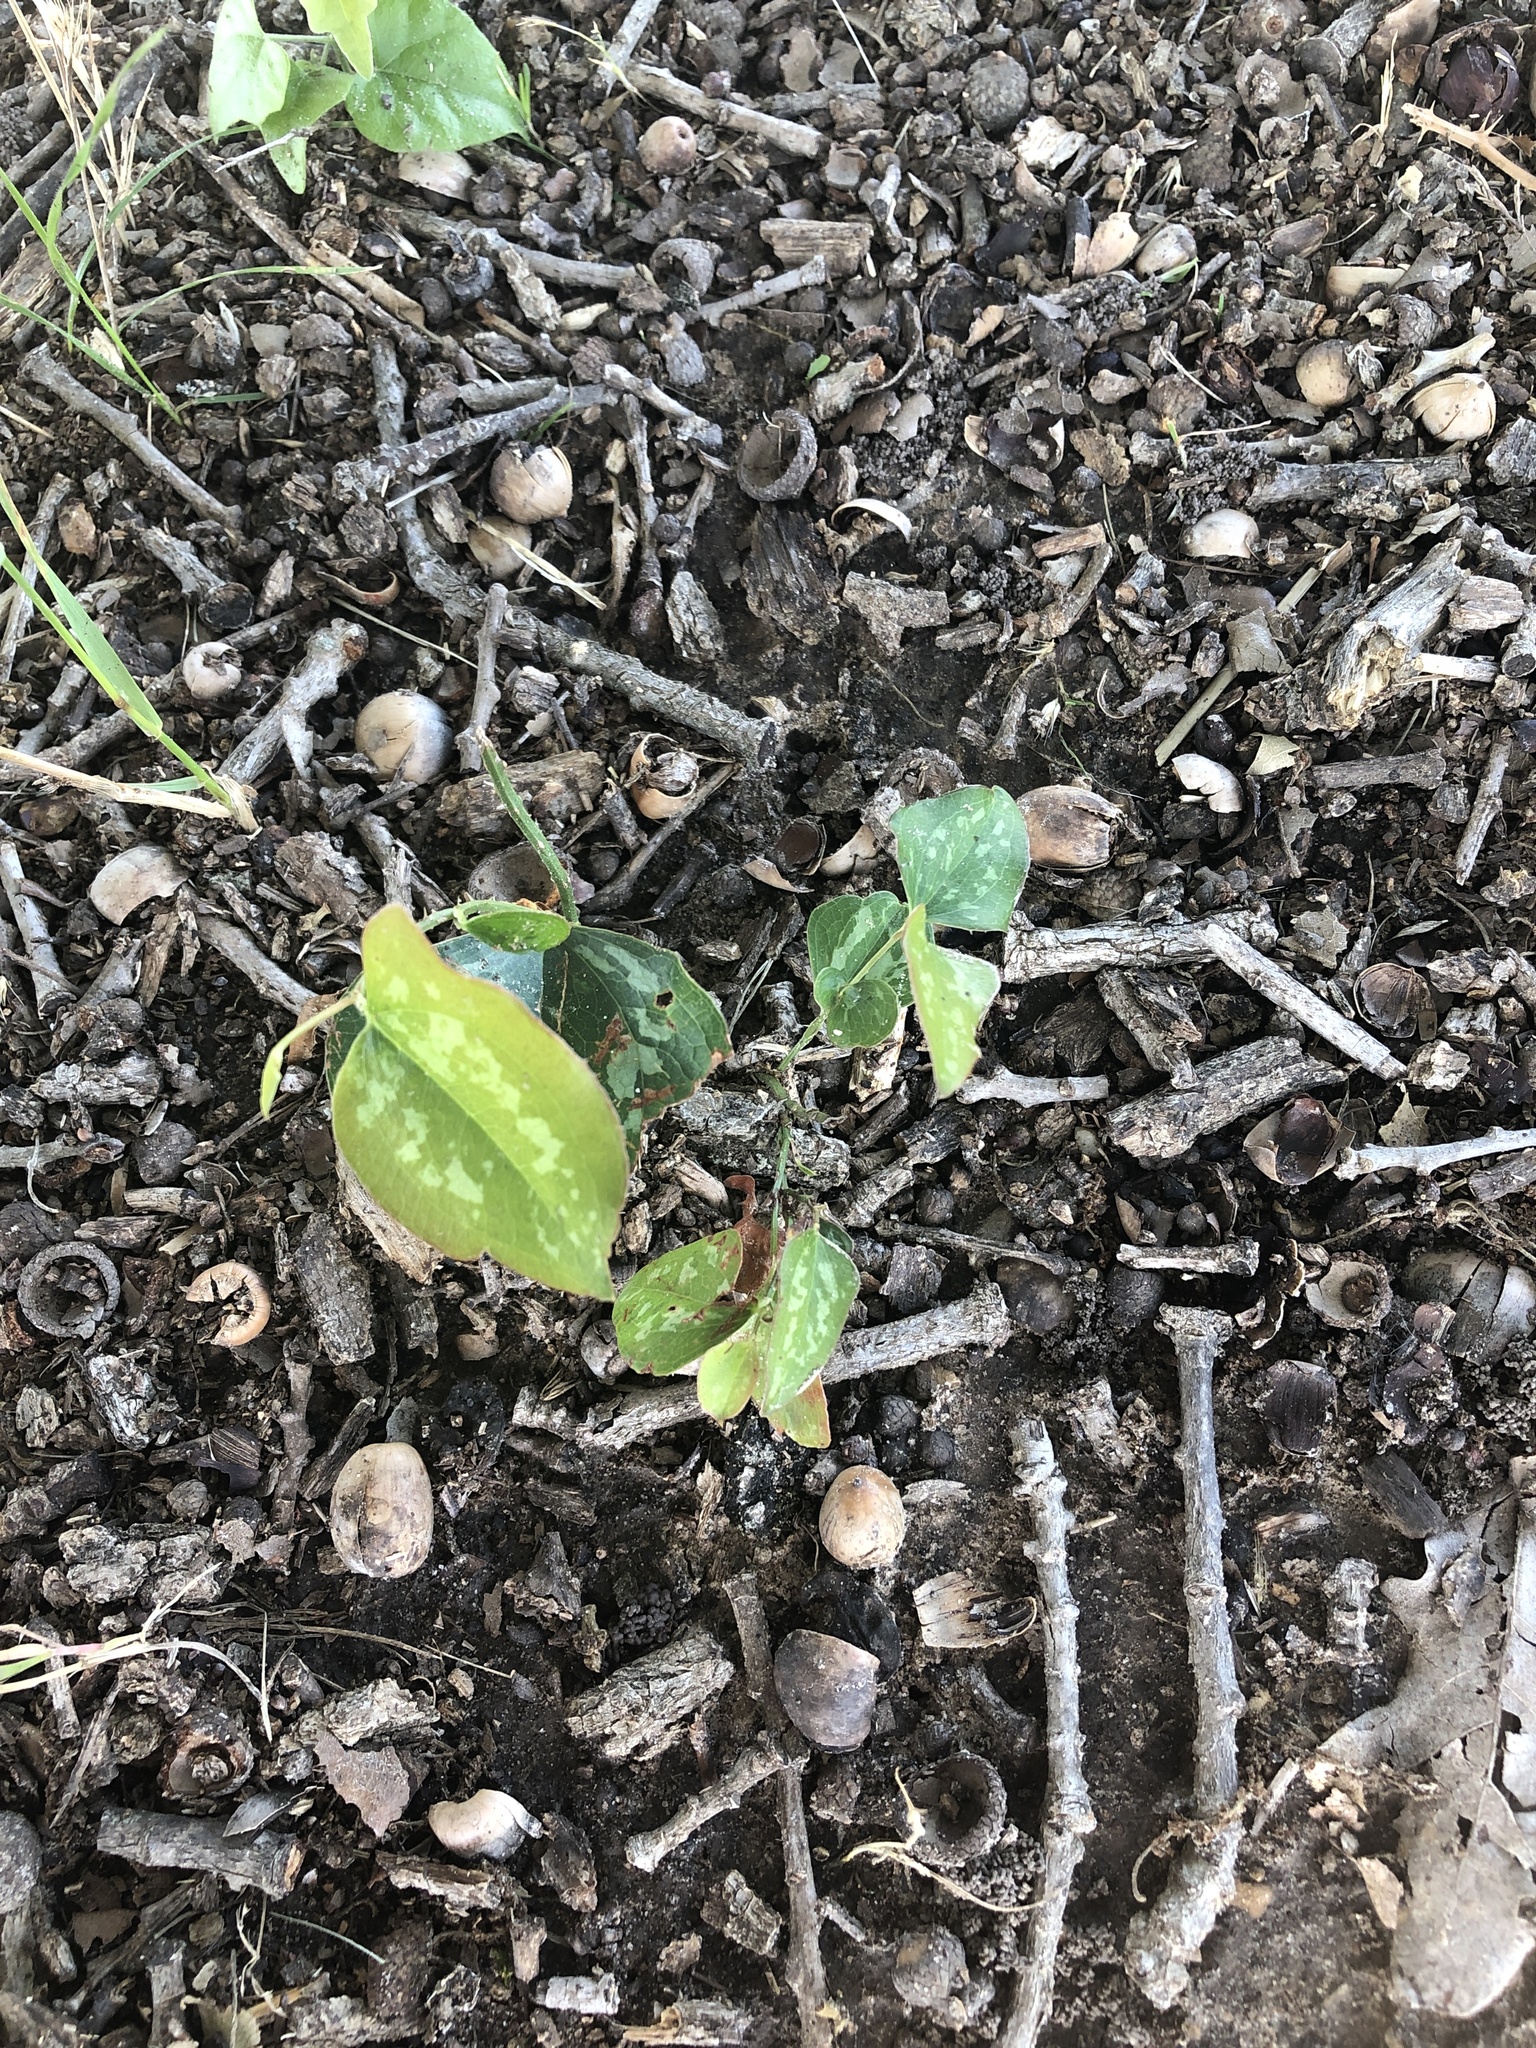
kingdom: Plantae
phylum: Tracheophyta
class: Liliopsida
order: Liliales
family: Smilacaceae
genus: Smilax
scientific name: Smilax bona-nox
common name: Catbrier
